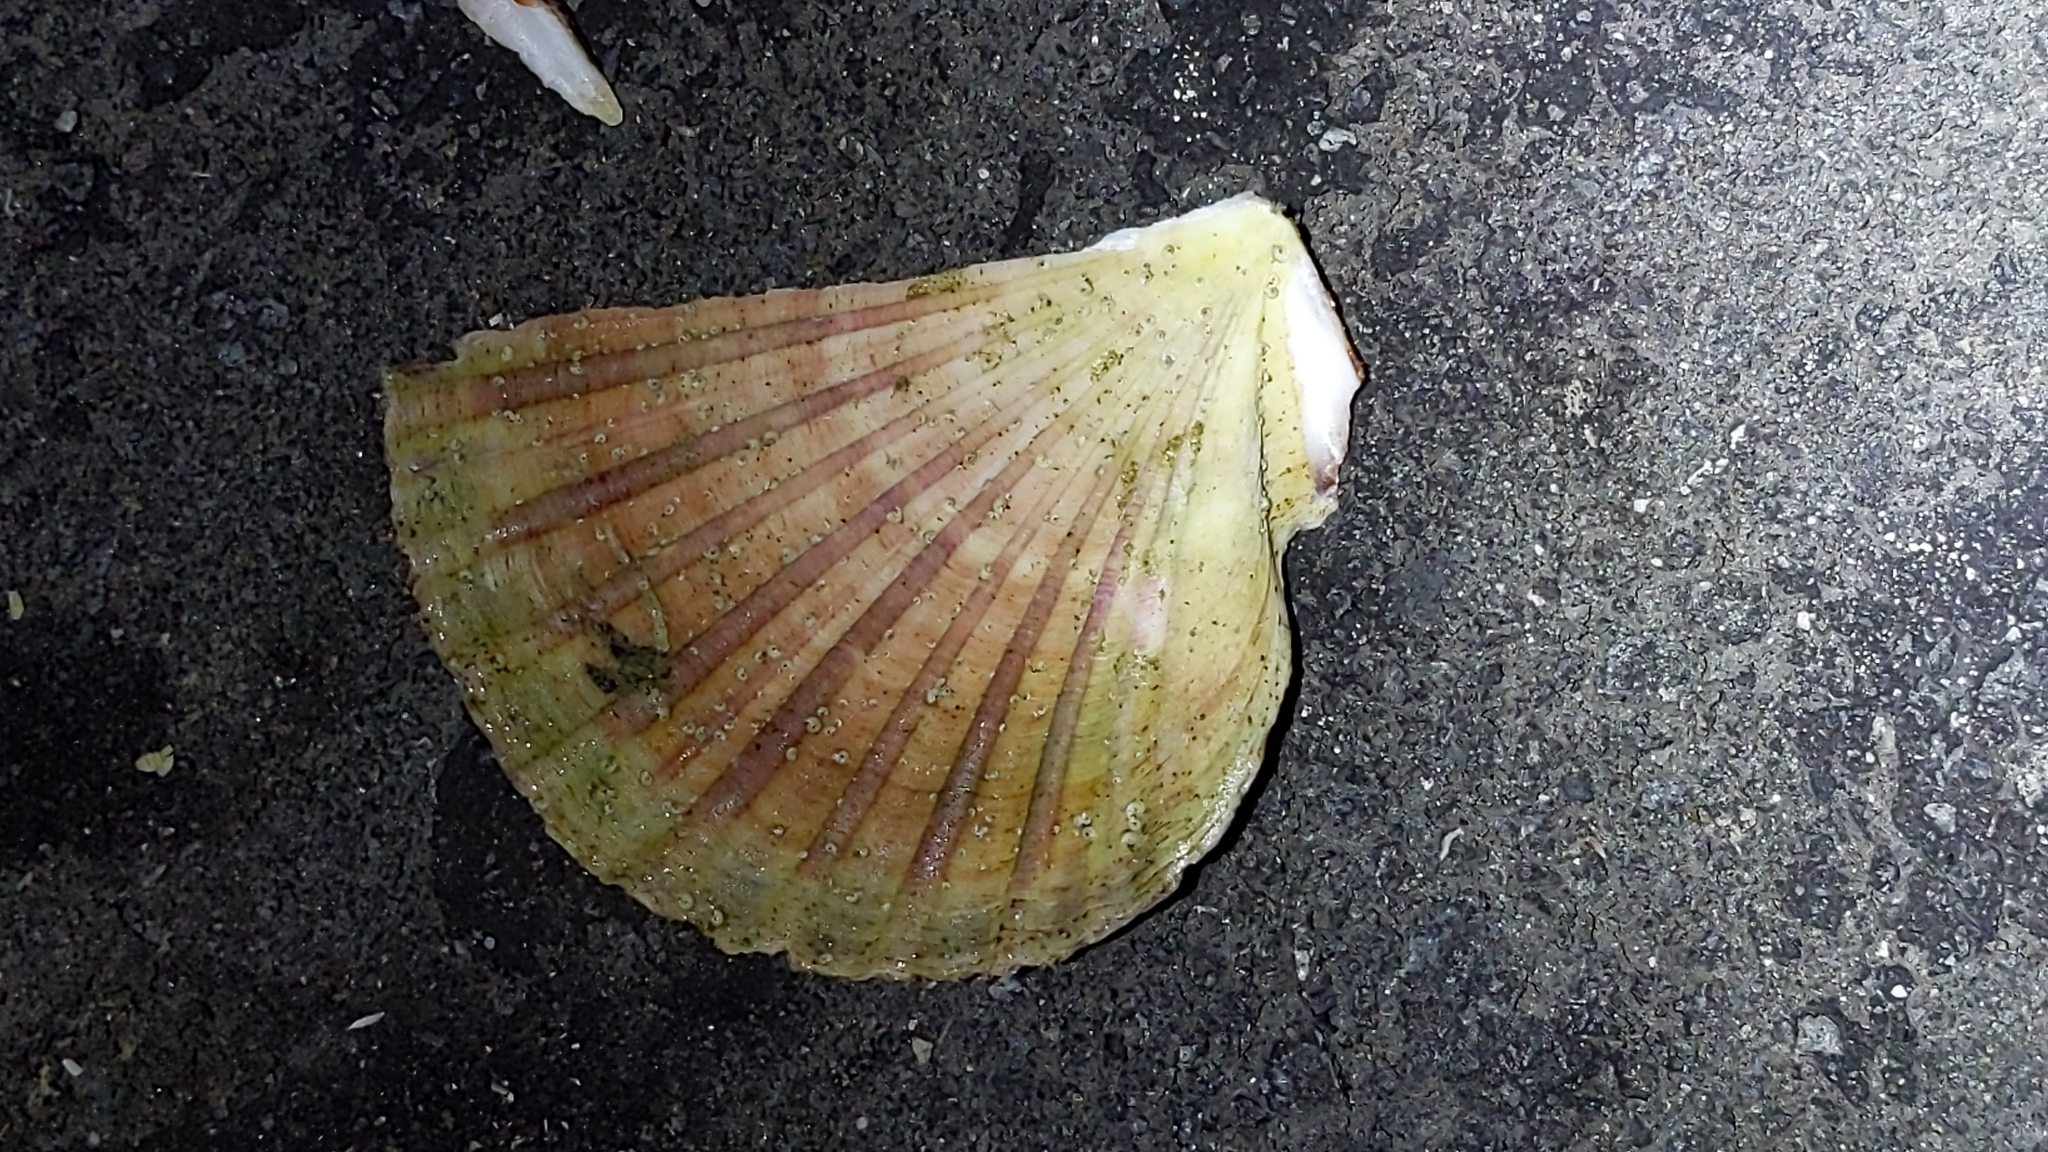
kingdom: Animalia
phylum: Mollusca
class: Bivalvia
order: Pectinida
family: Pectinidae
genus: Pecten
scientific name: Pecten novaezelandiae
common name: New zealand scallop
